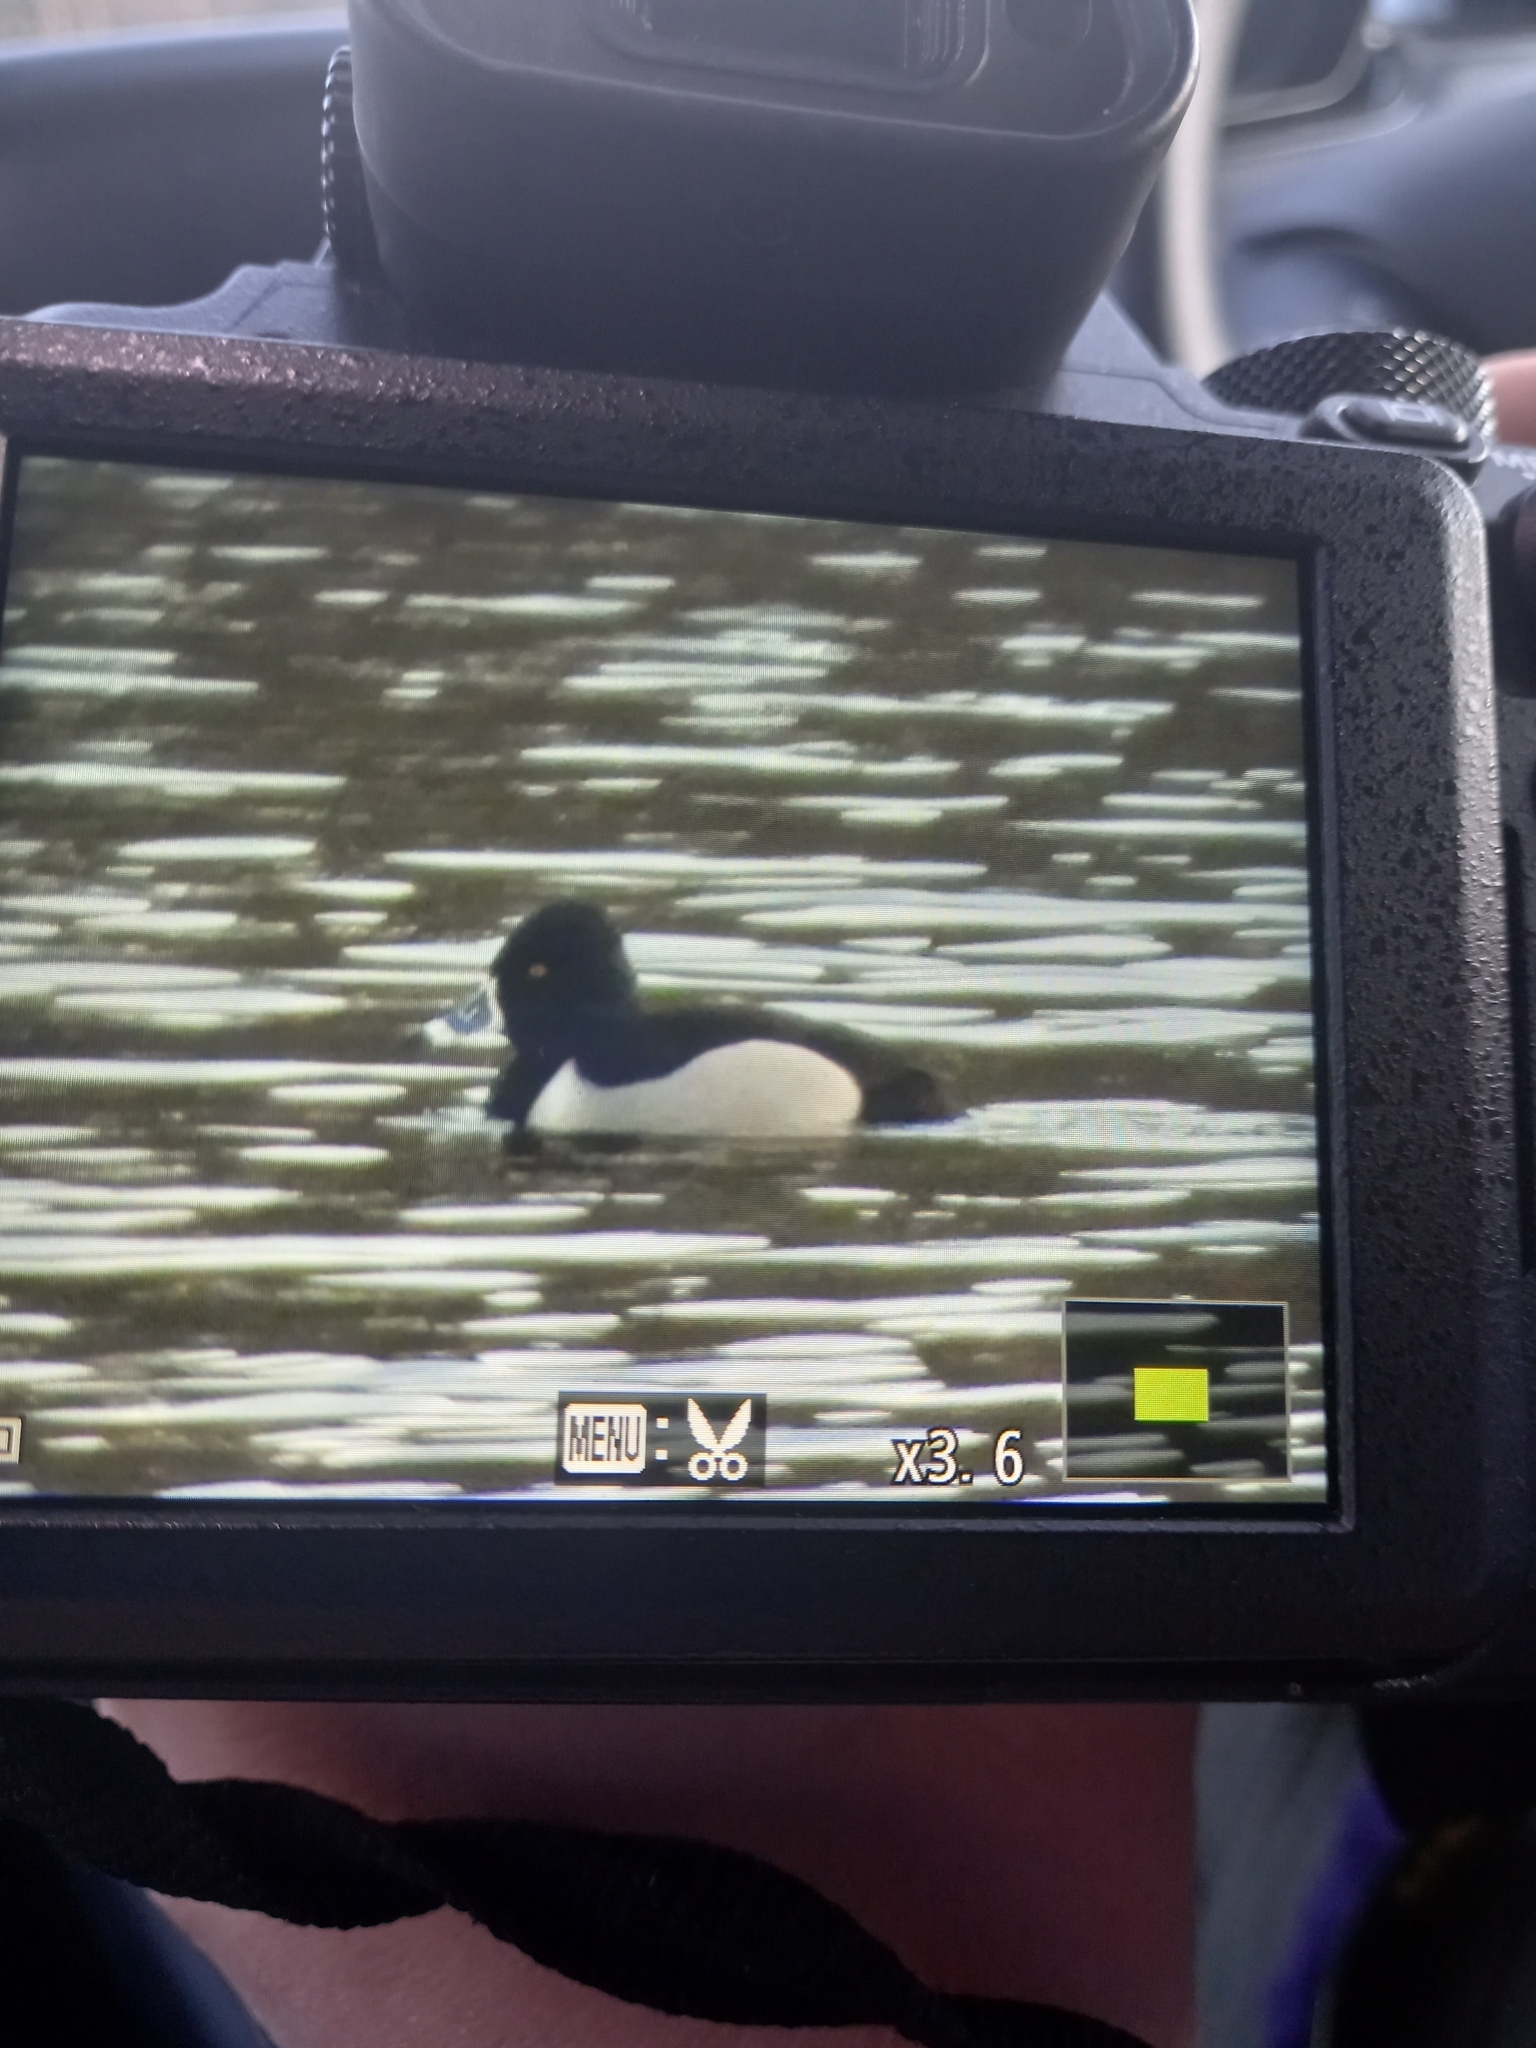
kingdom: Animalia
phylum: Chordata
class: Aves
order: Anseriformes
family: Anatidae
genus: Aythya
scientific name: Aythya collaris
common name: Ring-necked duck
